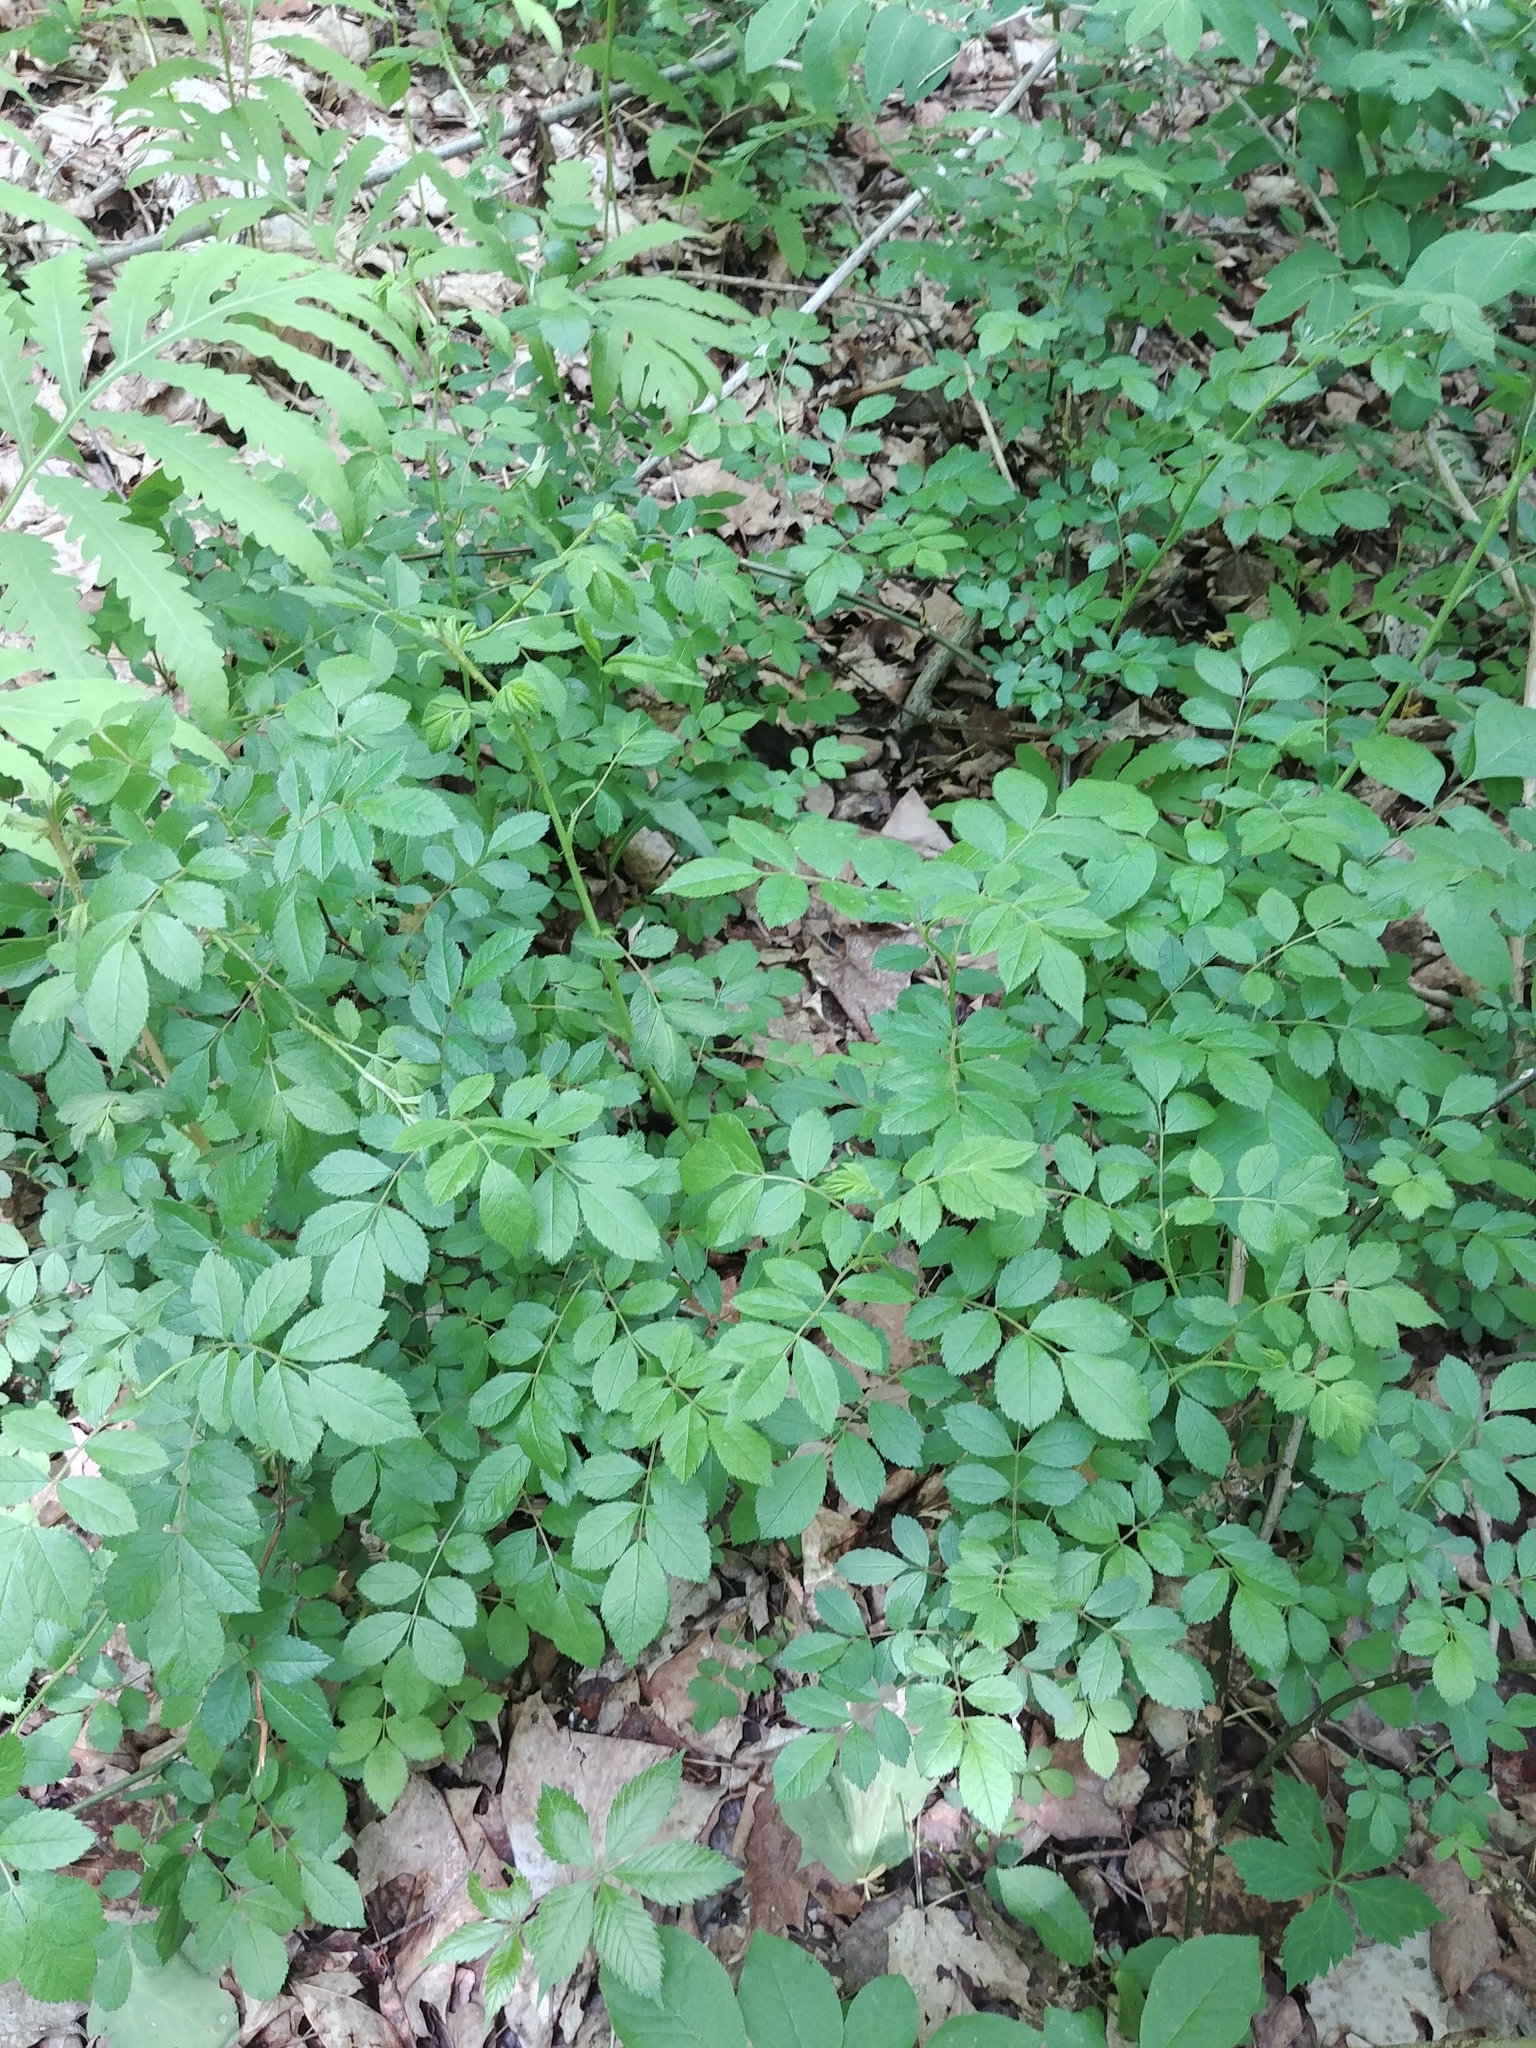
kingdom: Plantae
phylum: Tracheophyta
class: Magnoliopsida
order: Rosales
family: Rosaceae
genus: Rosa
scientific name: Rosa multiflora
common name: Multiflora rose
